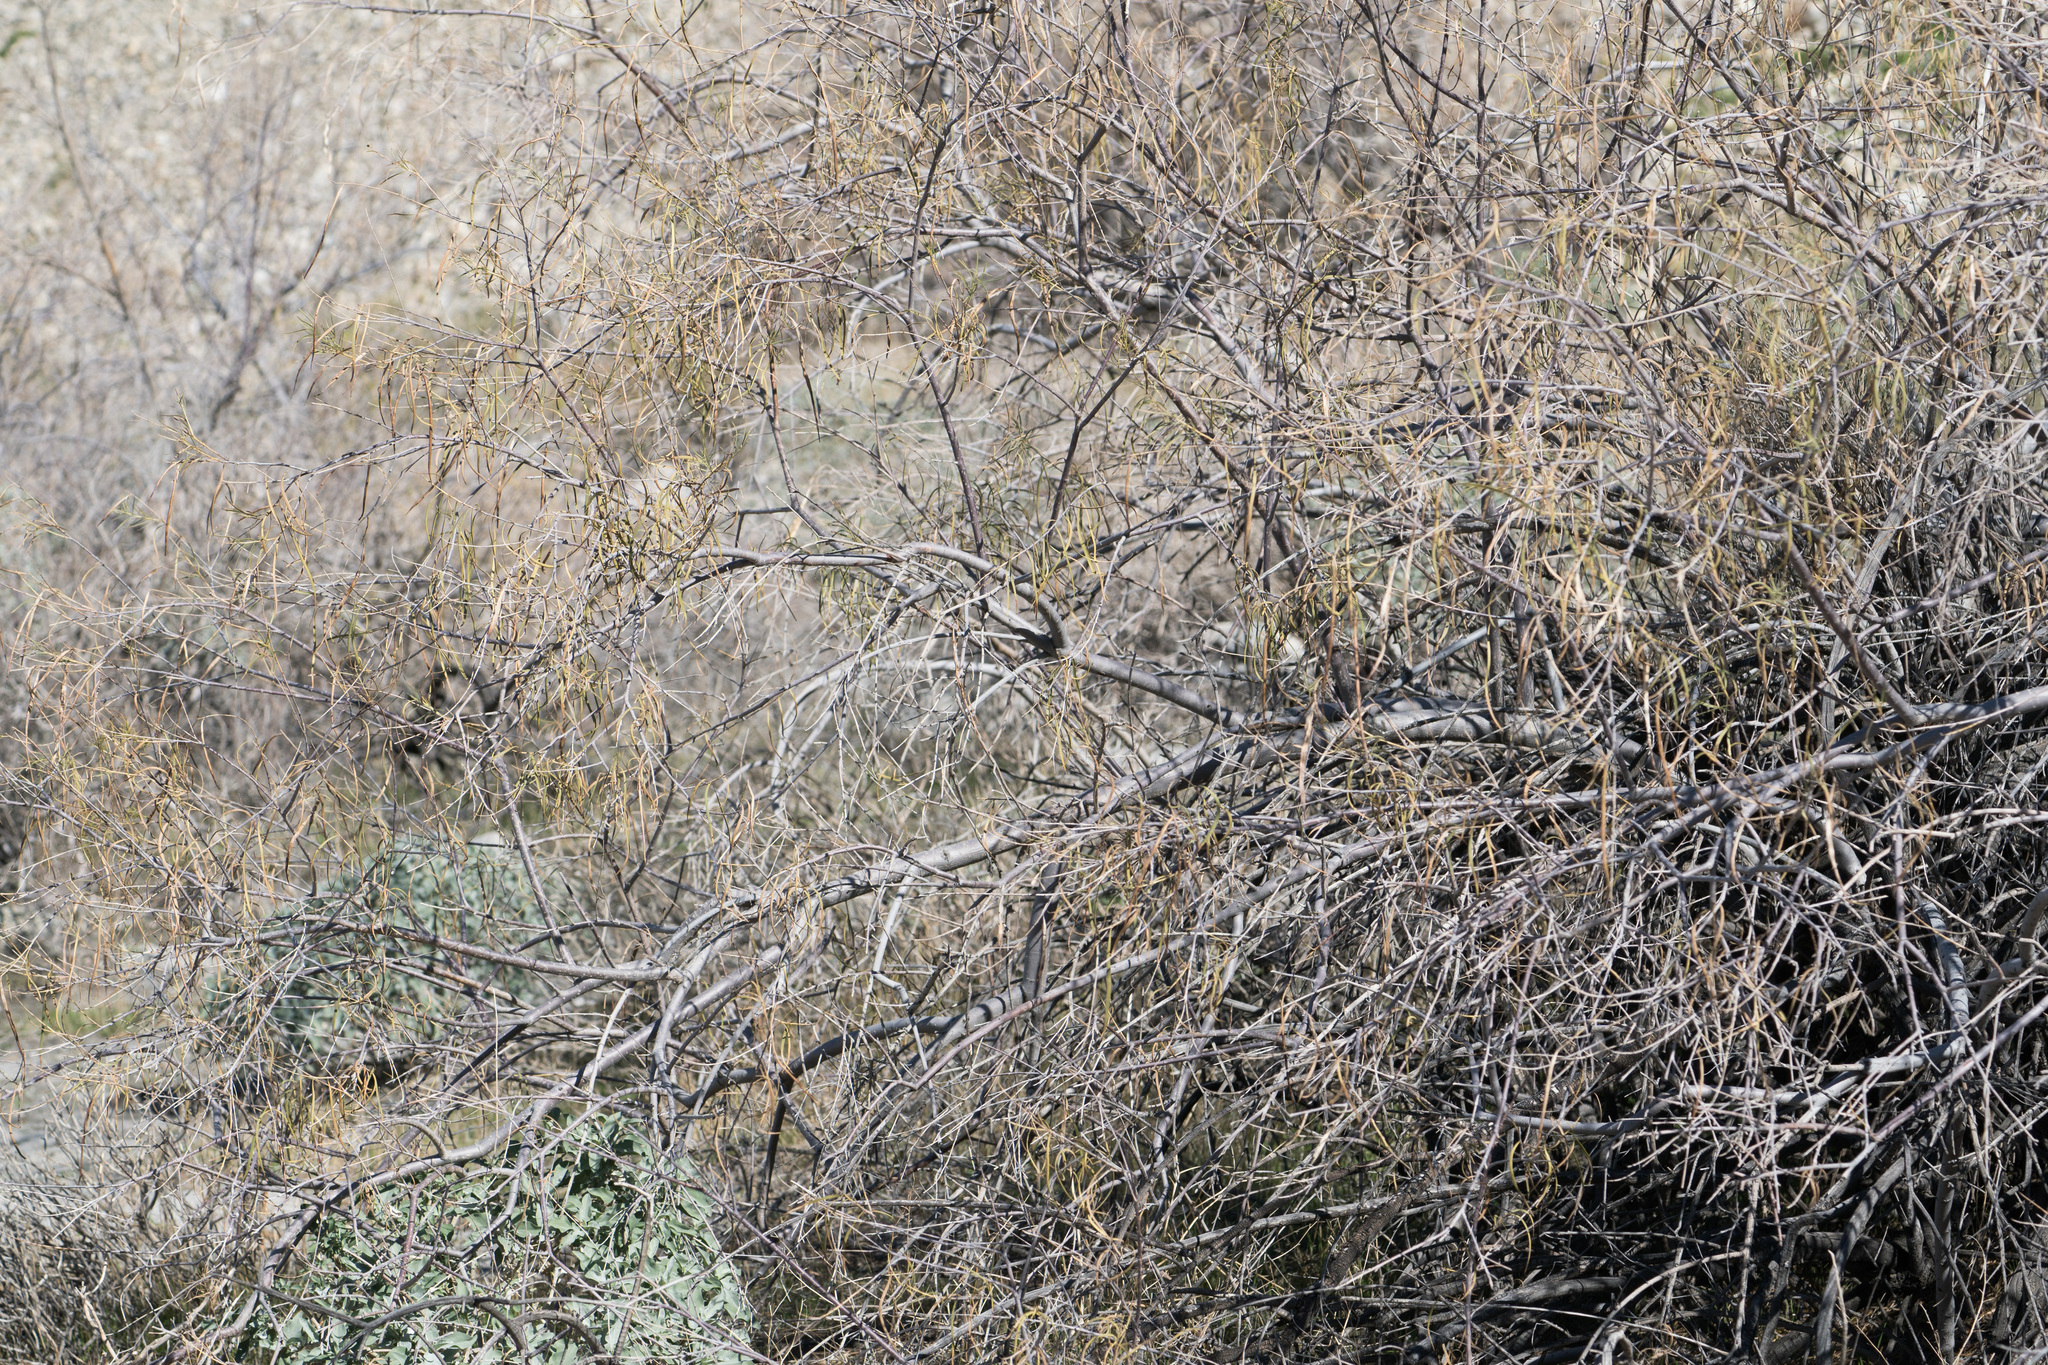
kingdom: Plantae
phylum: Tracheophyta
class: Magnoliopsida
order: Lamiales
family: Bignoniaceae
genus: Chilopsis
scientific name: Chilopsis linearis
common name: Desert-willow
